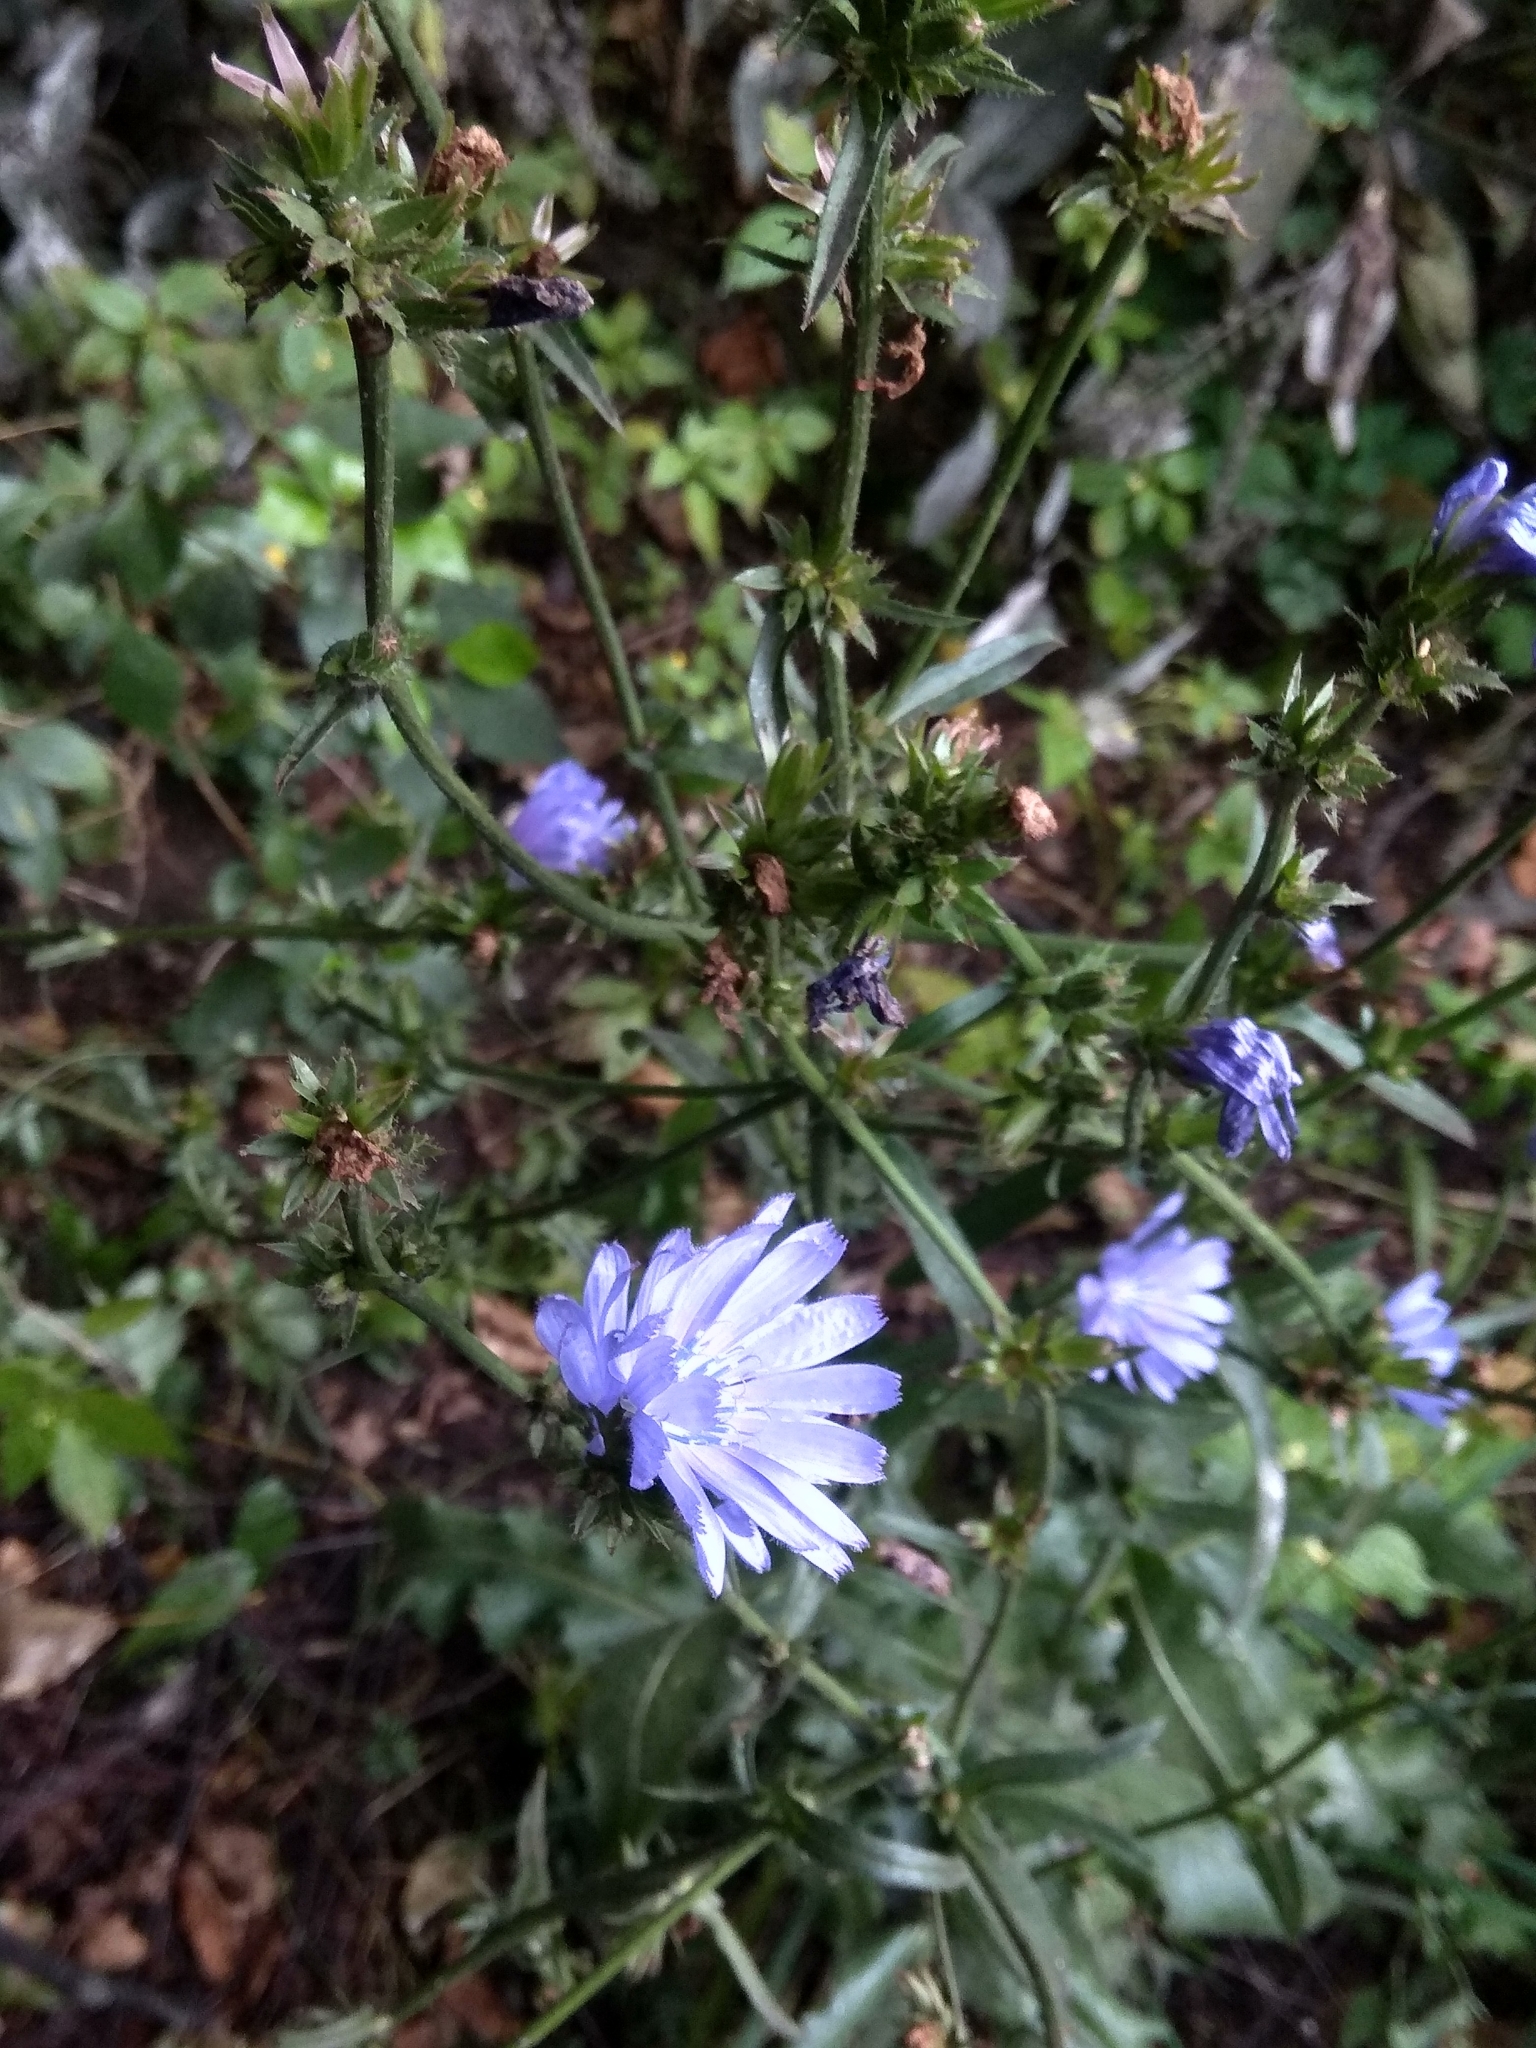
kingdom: Plantae
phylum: Tracheophyta
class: Magnoliopsida
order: Asterales
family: Asteraceae
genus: Cichorium
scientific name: Cichorium intybus
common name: Chicory
